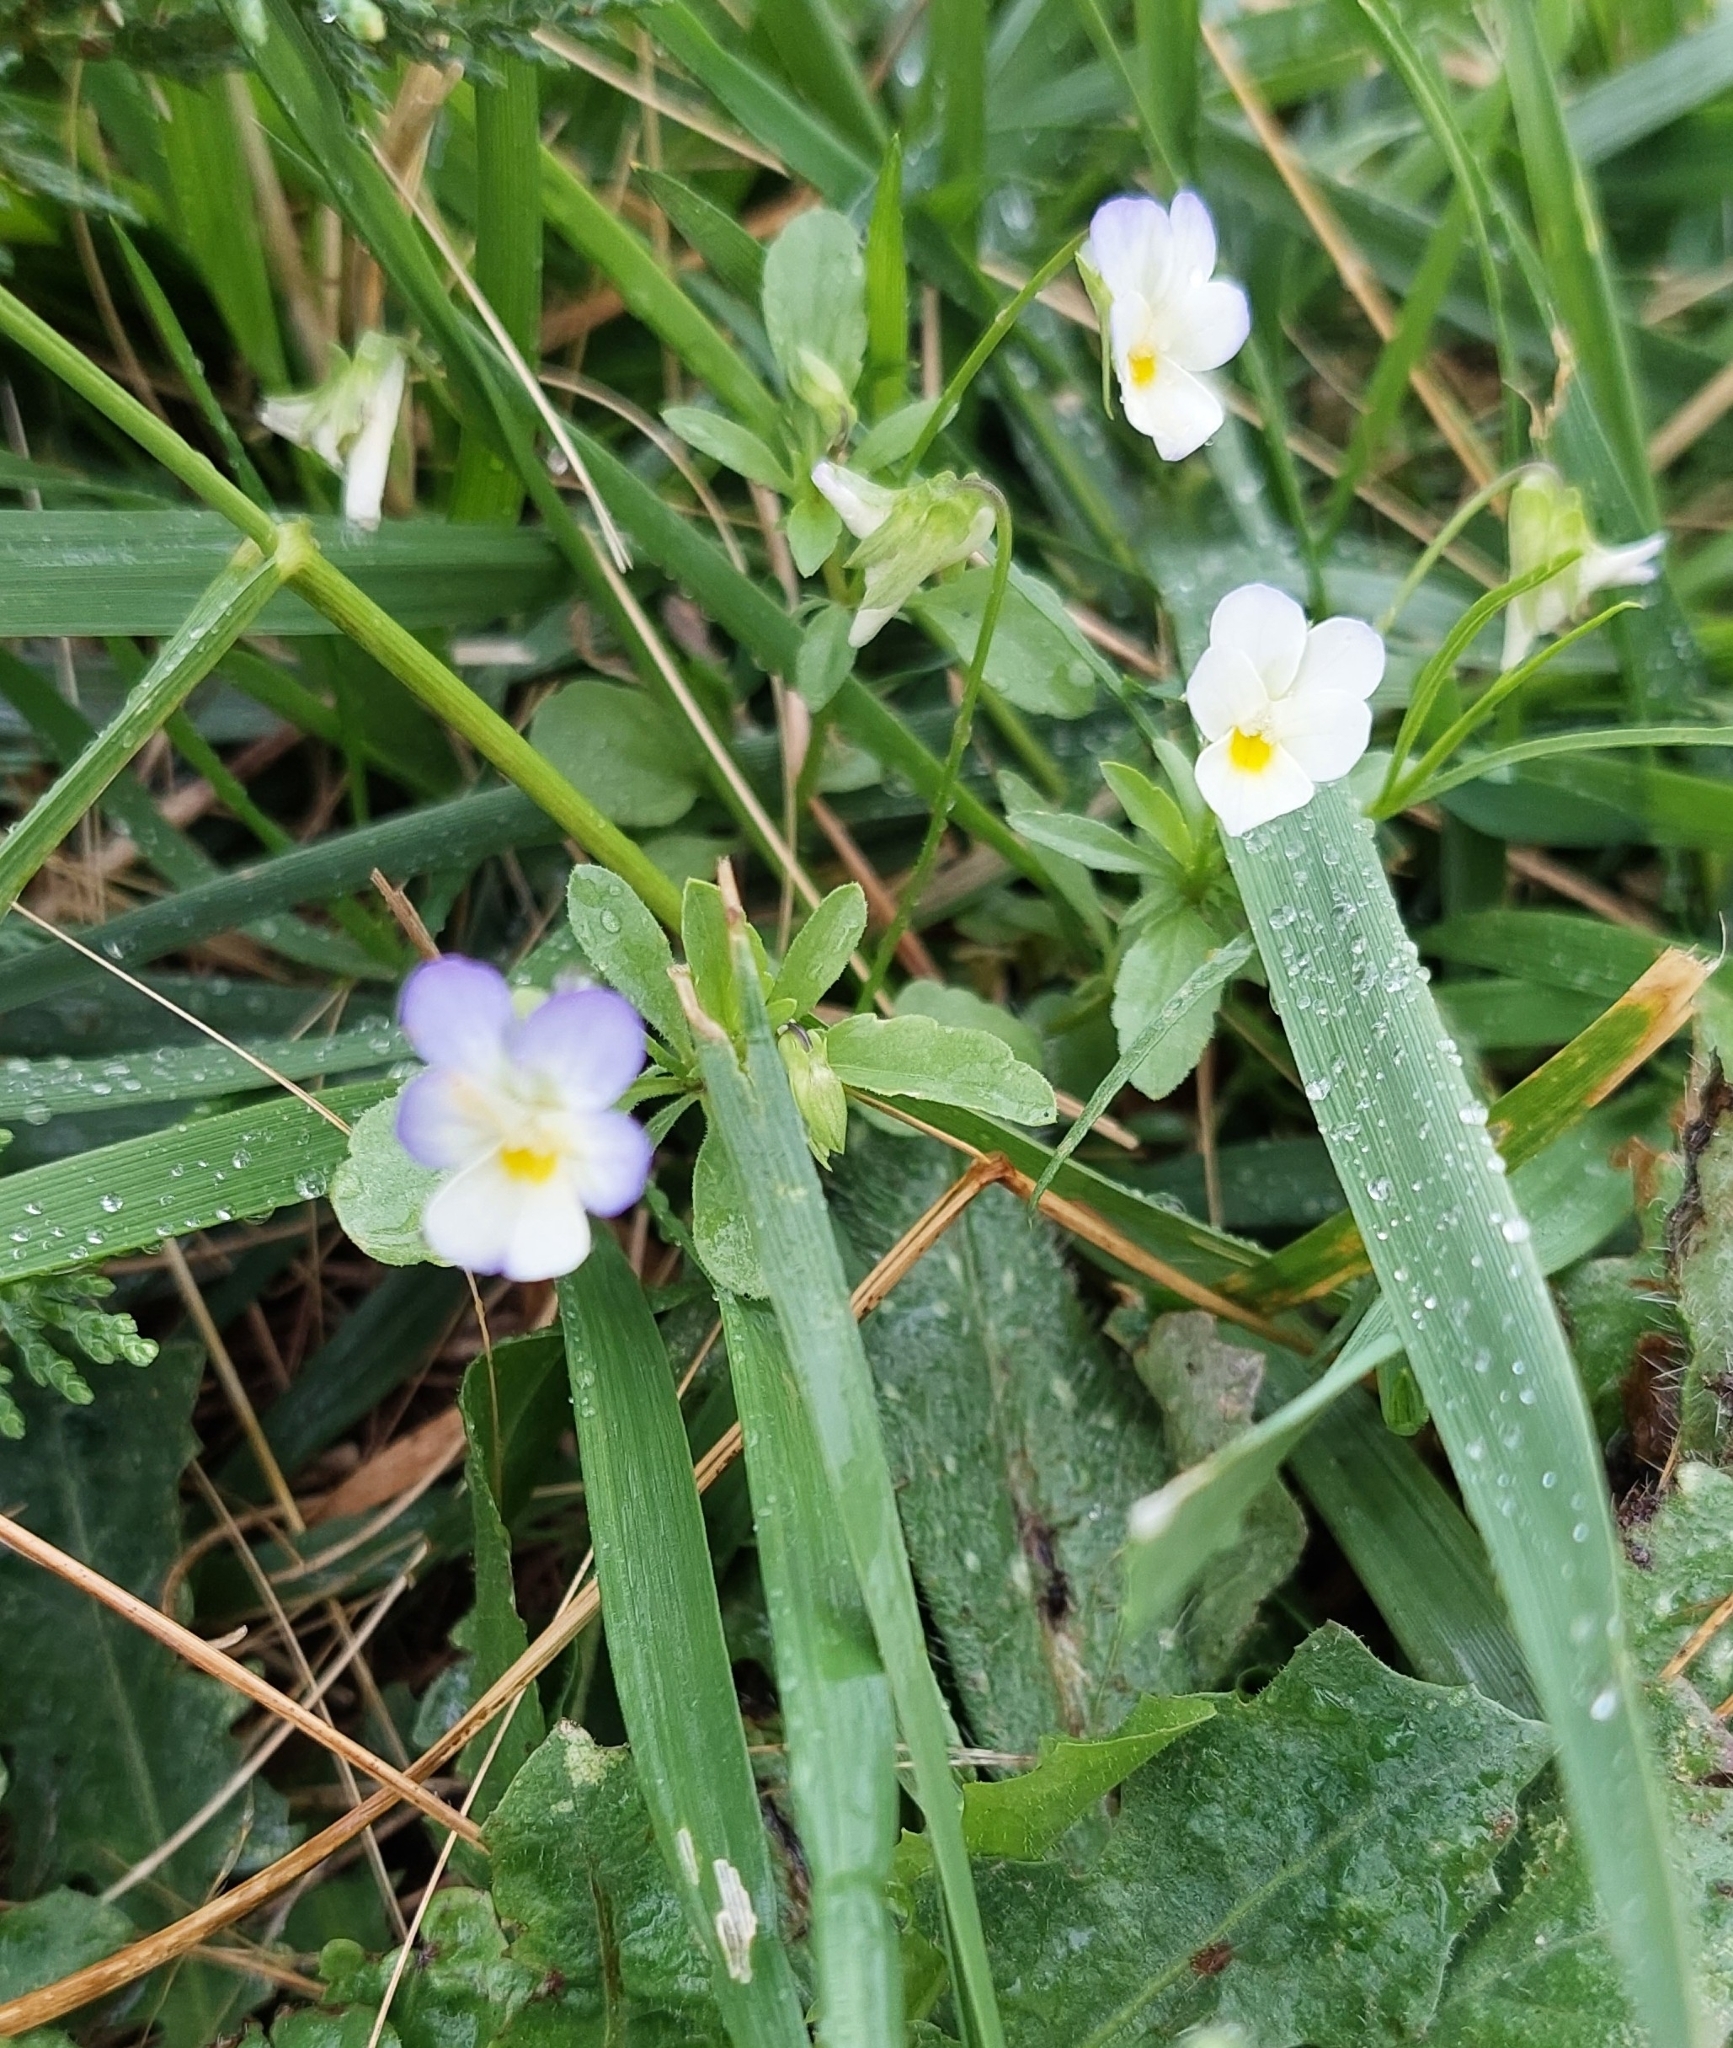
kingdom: Plantae
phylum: Tracheophyta
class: Magnoliopsida
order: Malpighiales
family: Violaceae
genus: Viola
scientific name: Viola arvensis
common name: Field pansy
